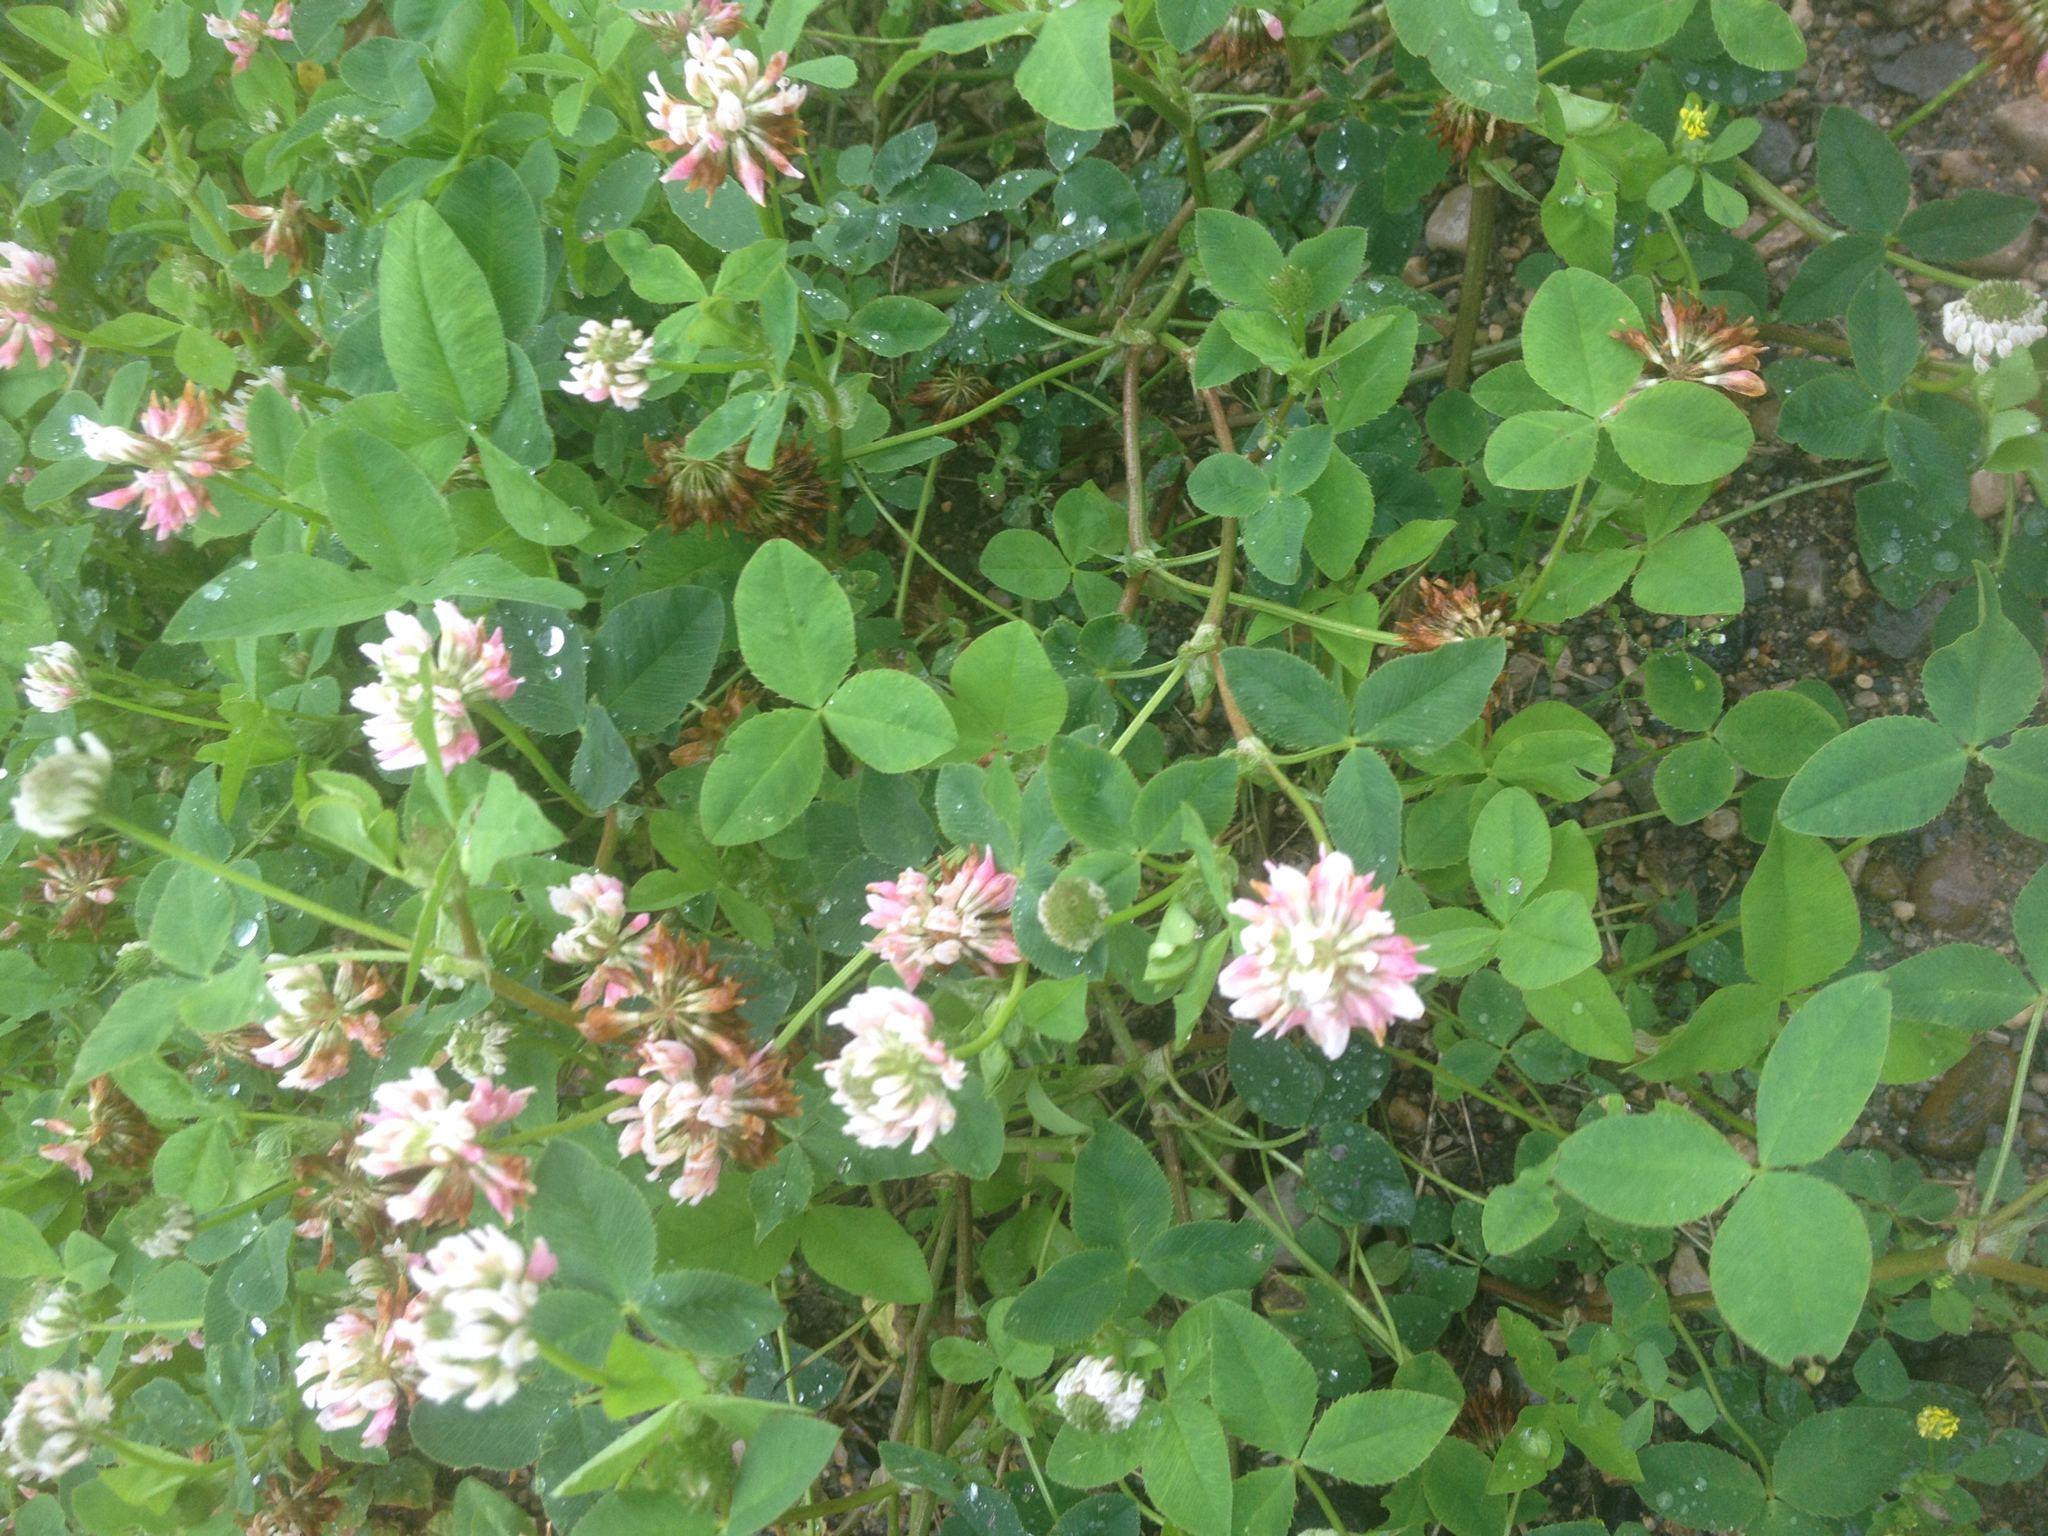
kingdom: Plantae
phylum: Tracheophyta
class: Magnoliopsida
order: Fabales
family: Fabaceae
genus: Trifolium
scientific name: Trifolium hybridum
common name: Alsike clover
